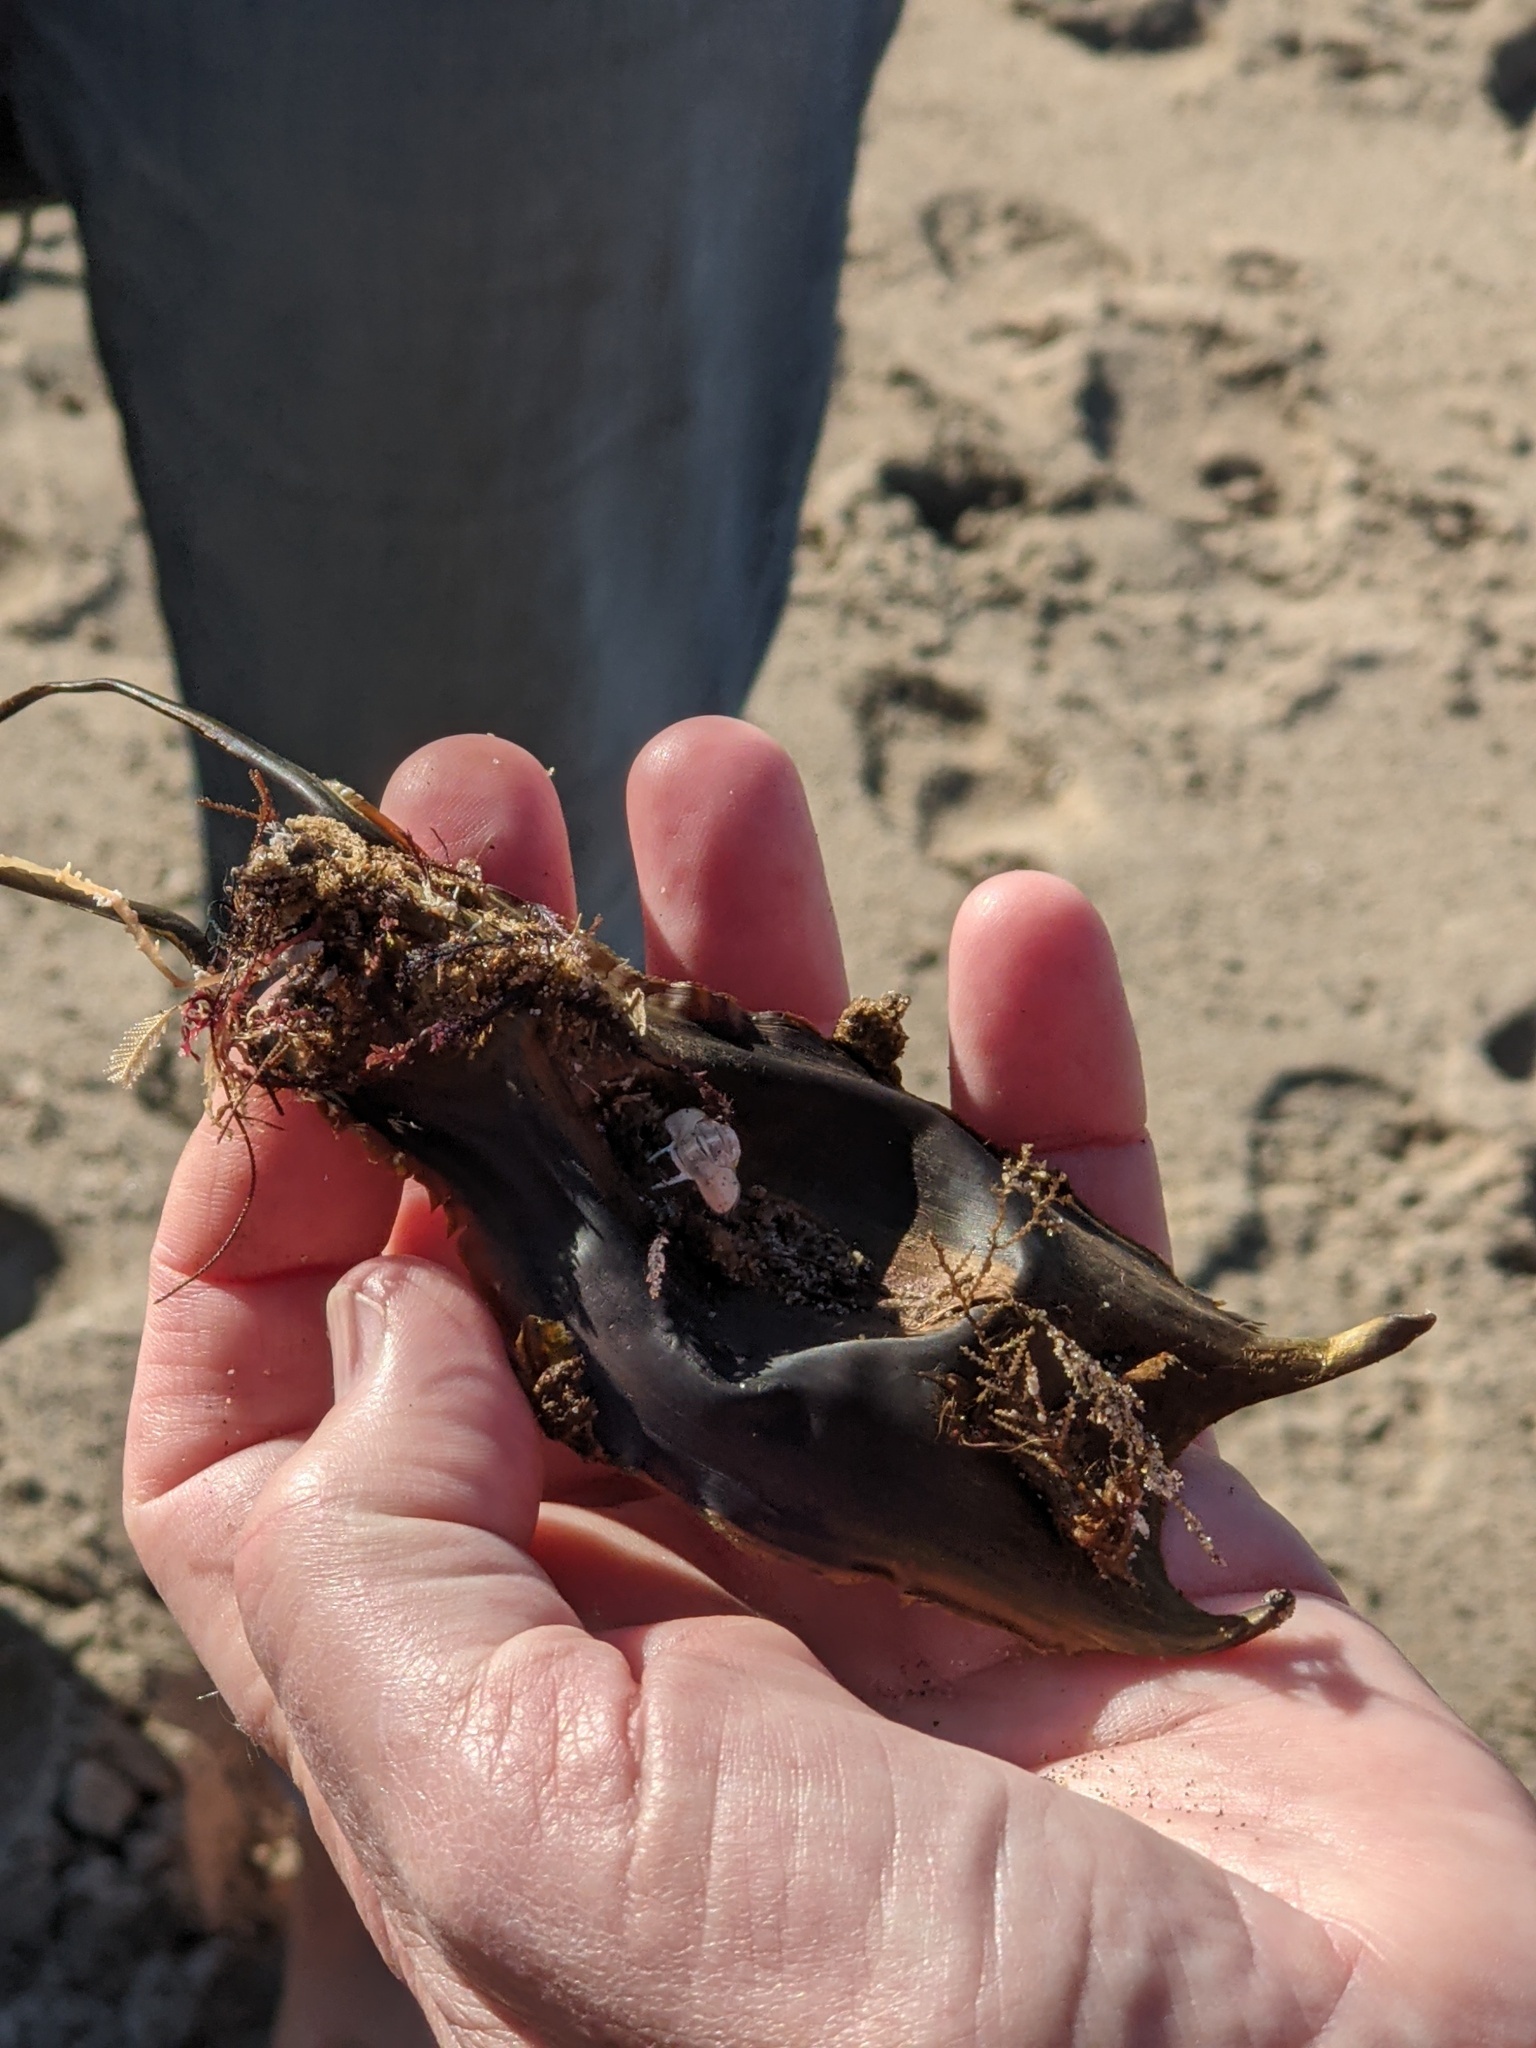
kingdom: Animalia
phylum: Chordata
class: Elasmobranchii
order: Rajiformes
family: Rajidae
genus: Caliraja
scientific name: Caliraja
